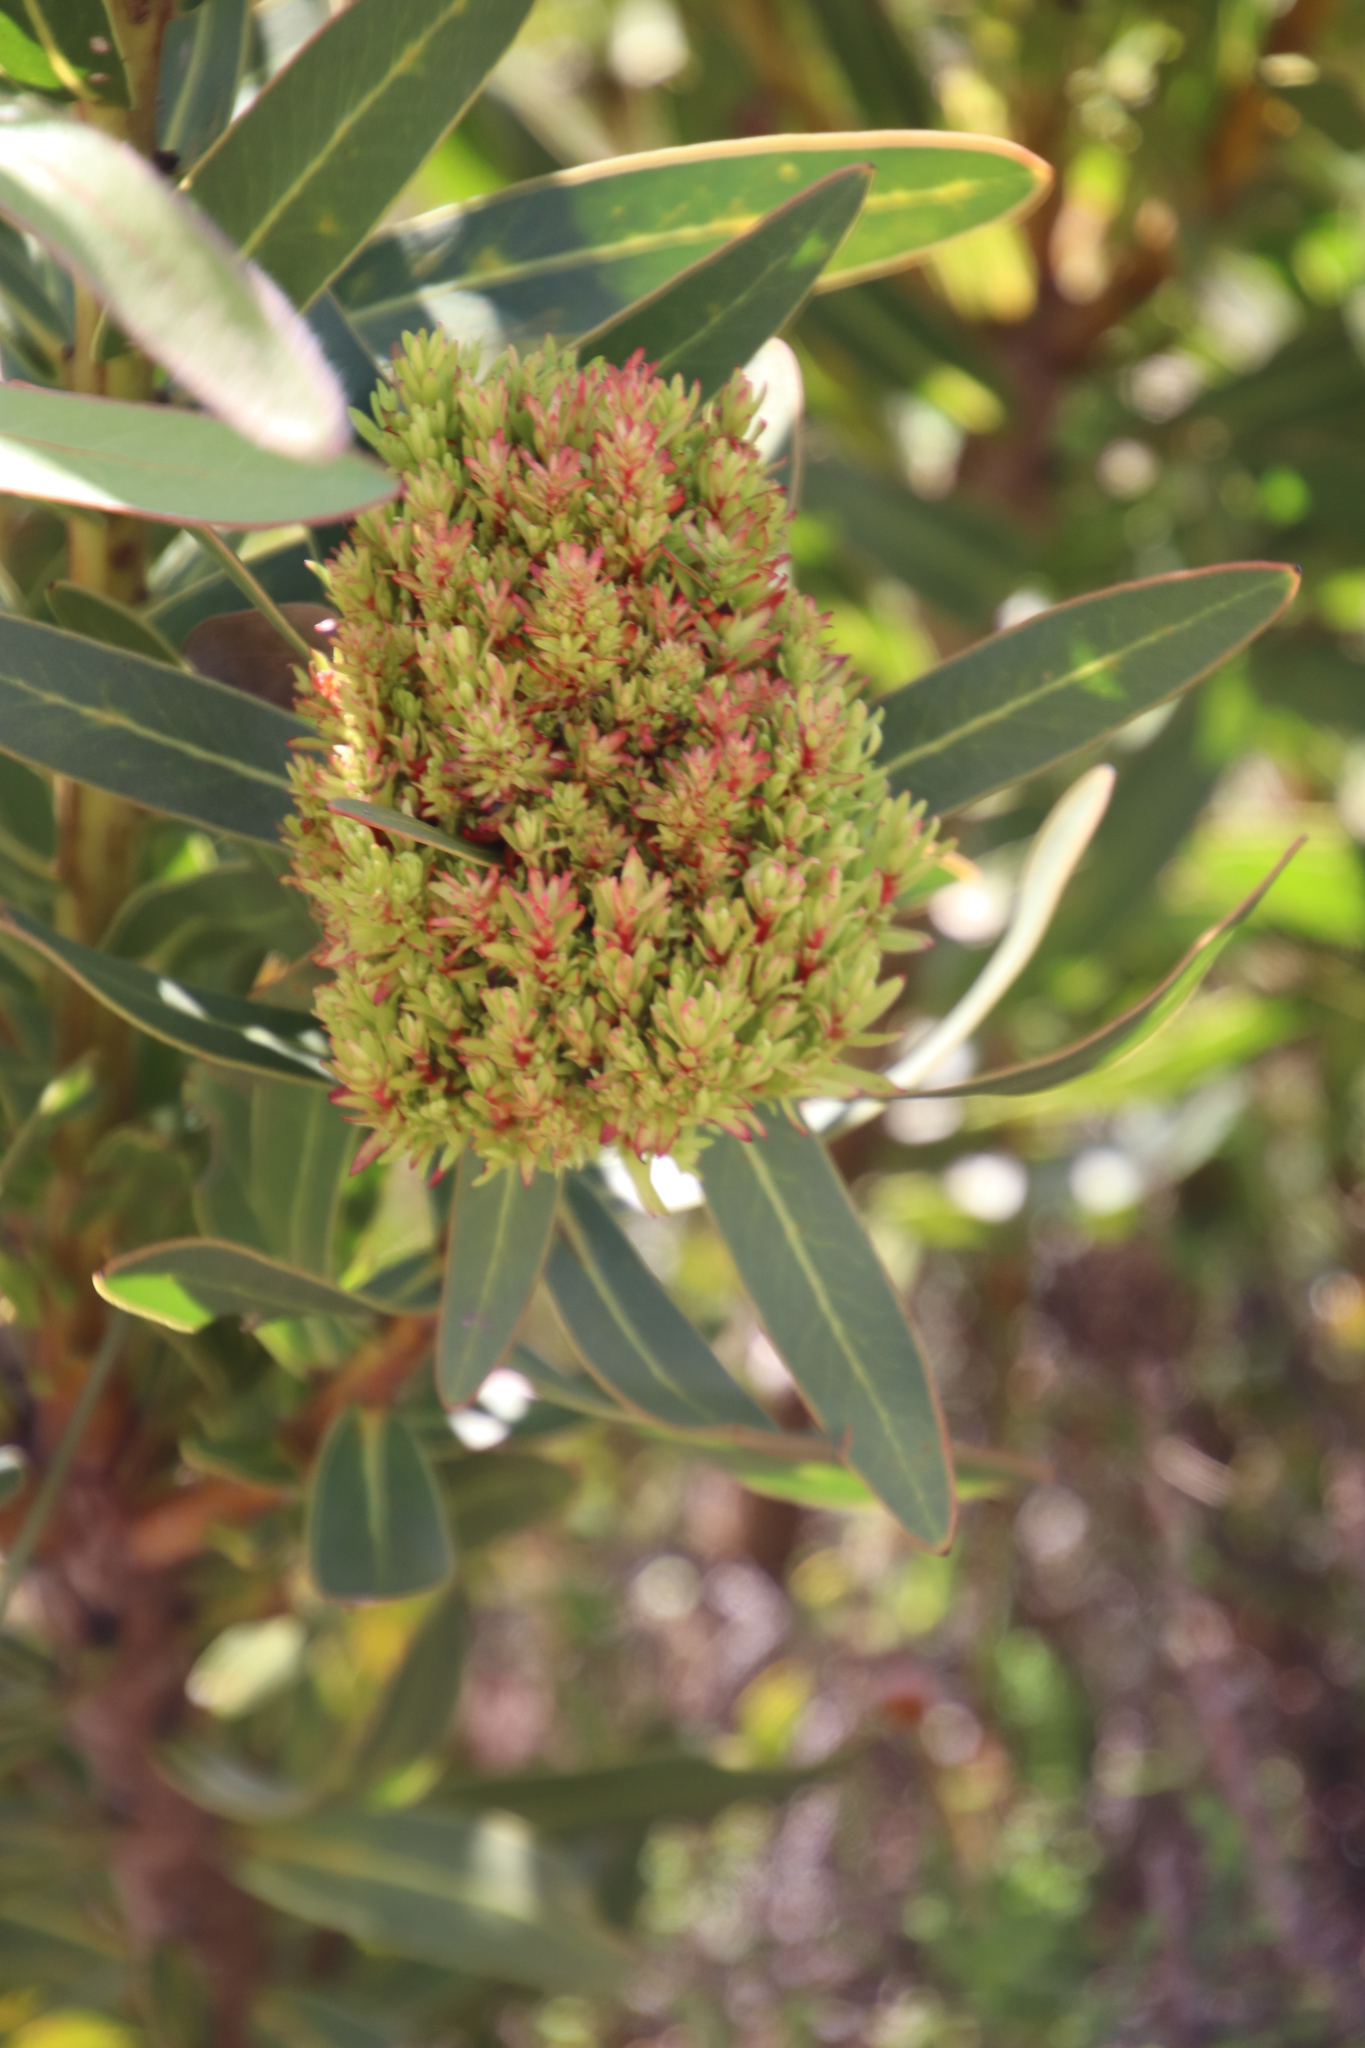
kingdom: Bacteria
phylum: Firmicutes
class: Bacilli
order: Acholeplasmatales
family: Acholeplasmataceae
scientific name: Acholeplasmataceae
